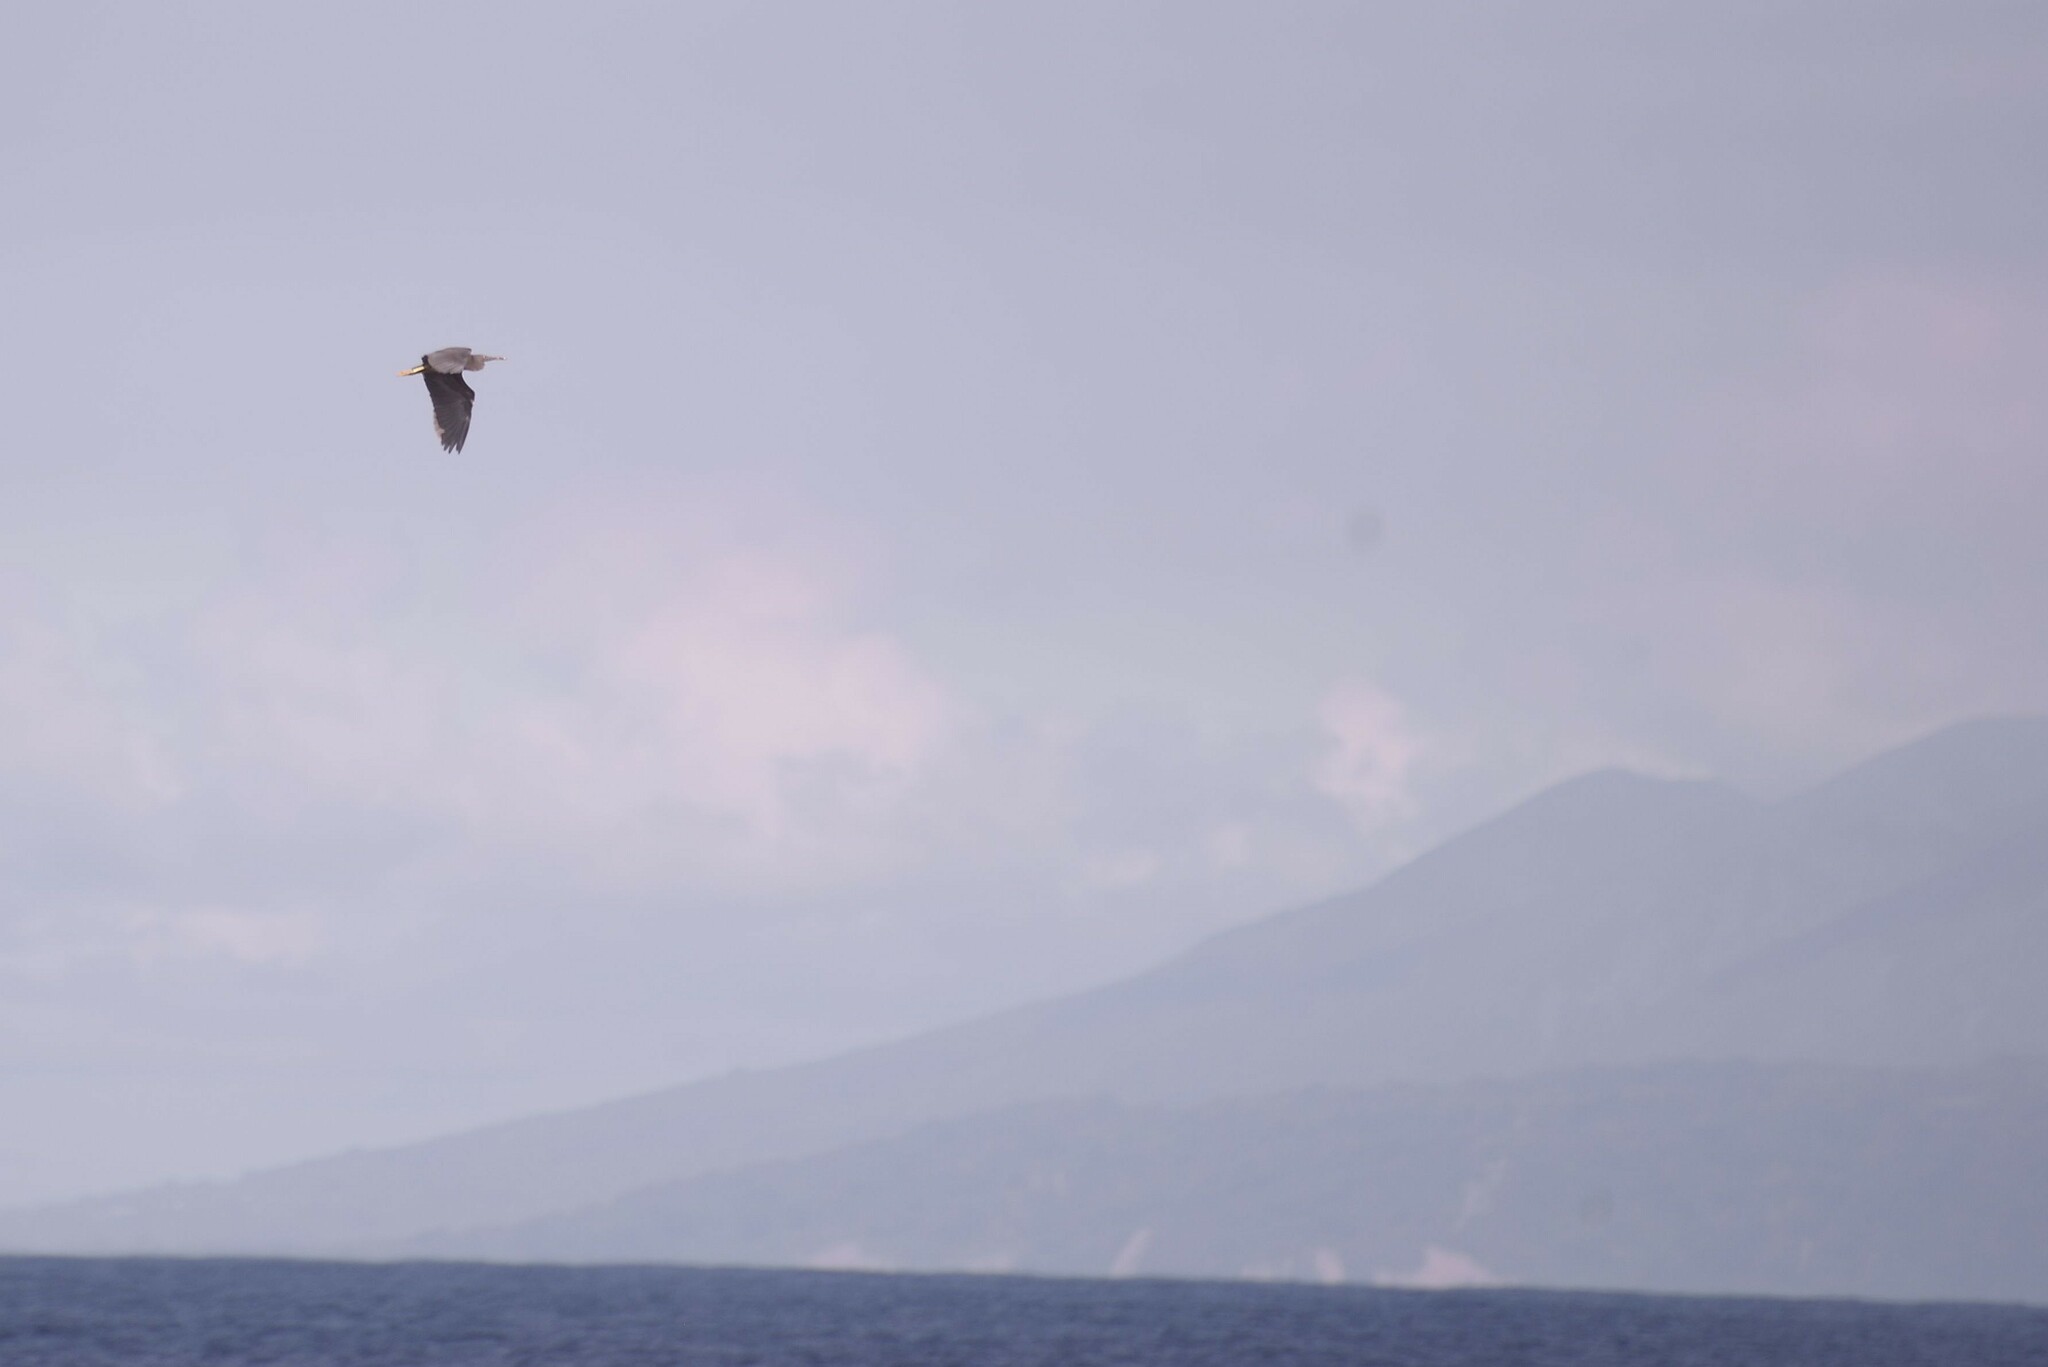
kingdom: Animalia
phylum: Chordata
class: Aves
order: Pelecaniformes
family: Ardeidae
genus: Egretta
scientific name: Egretta sacra
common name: Pacific reef heron
